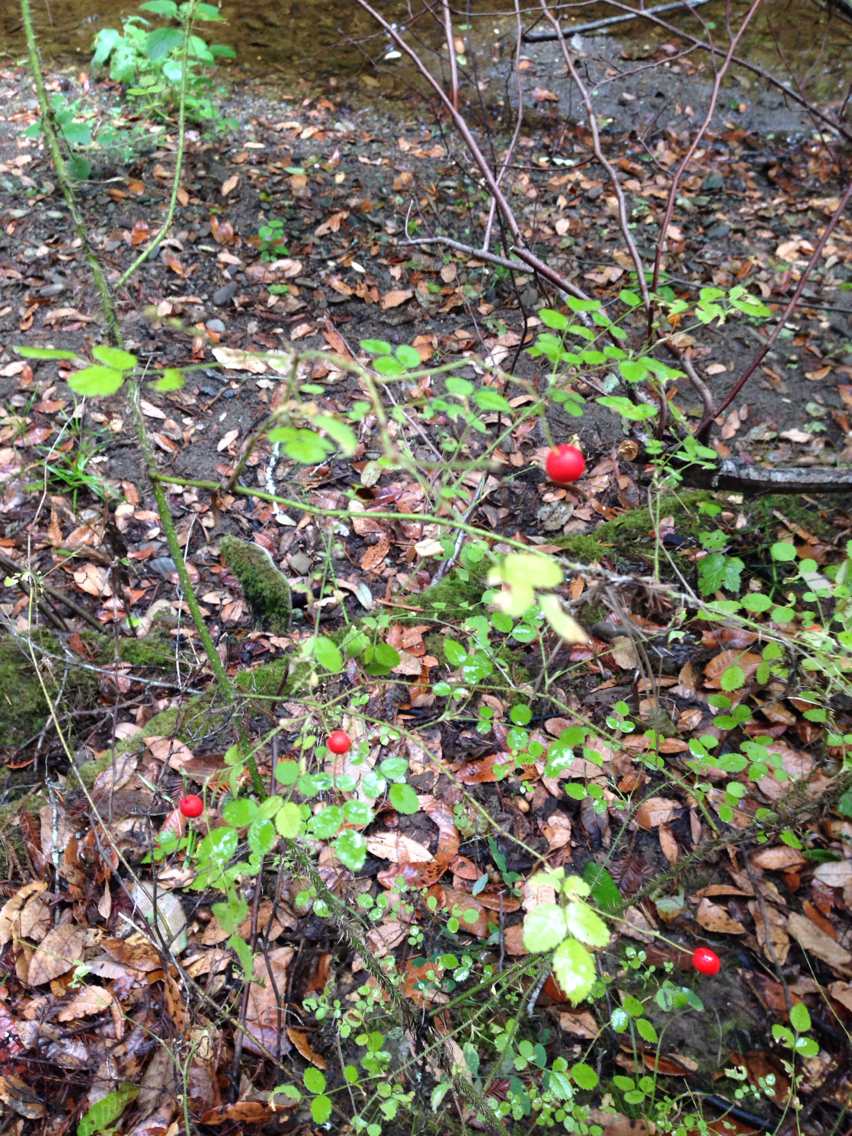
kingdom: Plantae
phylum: Tracheophyta
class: Magnoliopsida
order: Rosales
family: Rosaceae
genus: Rosa
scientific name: Rosa gymnocarpa
